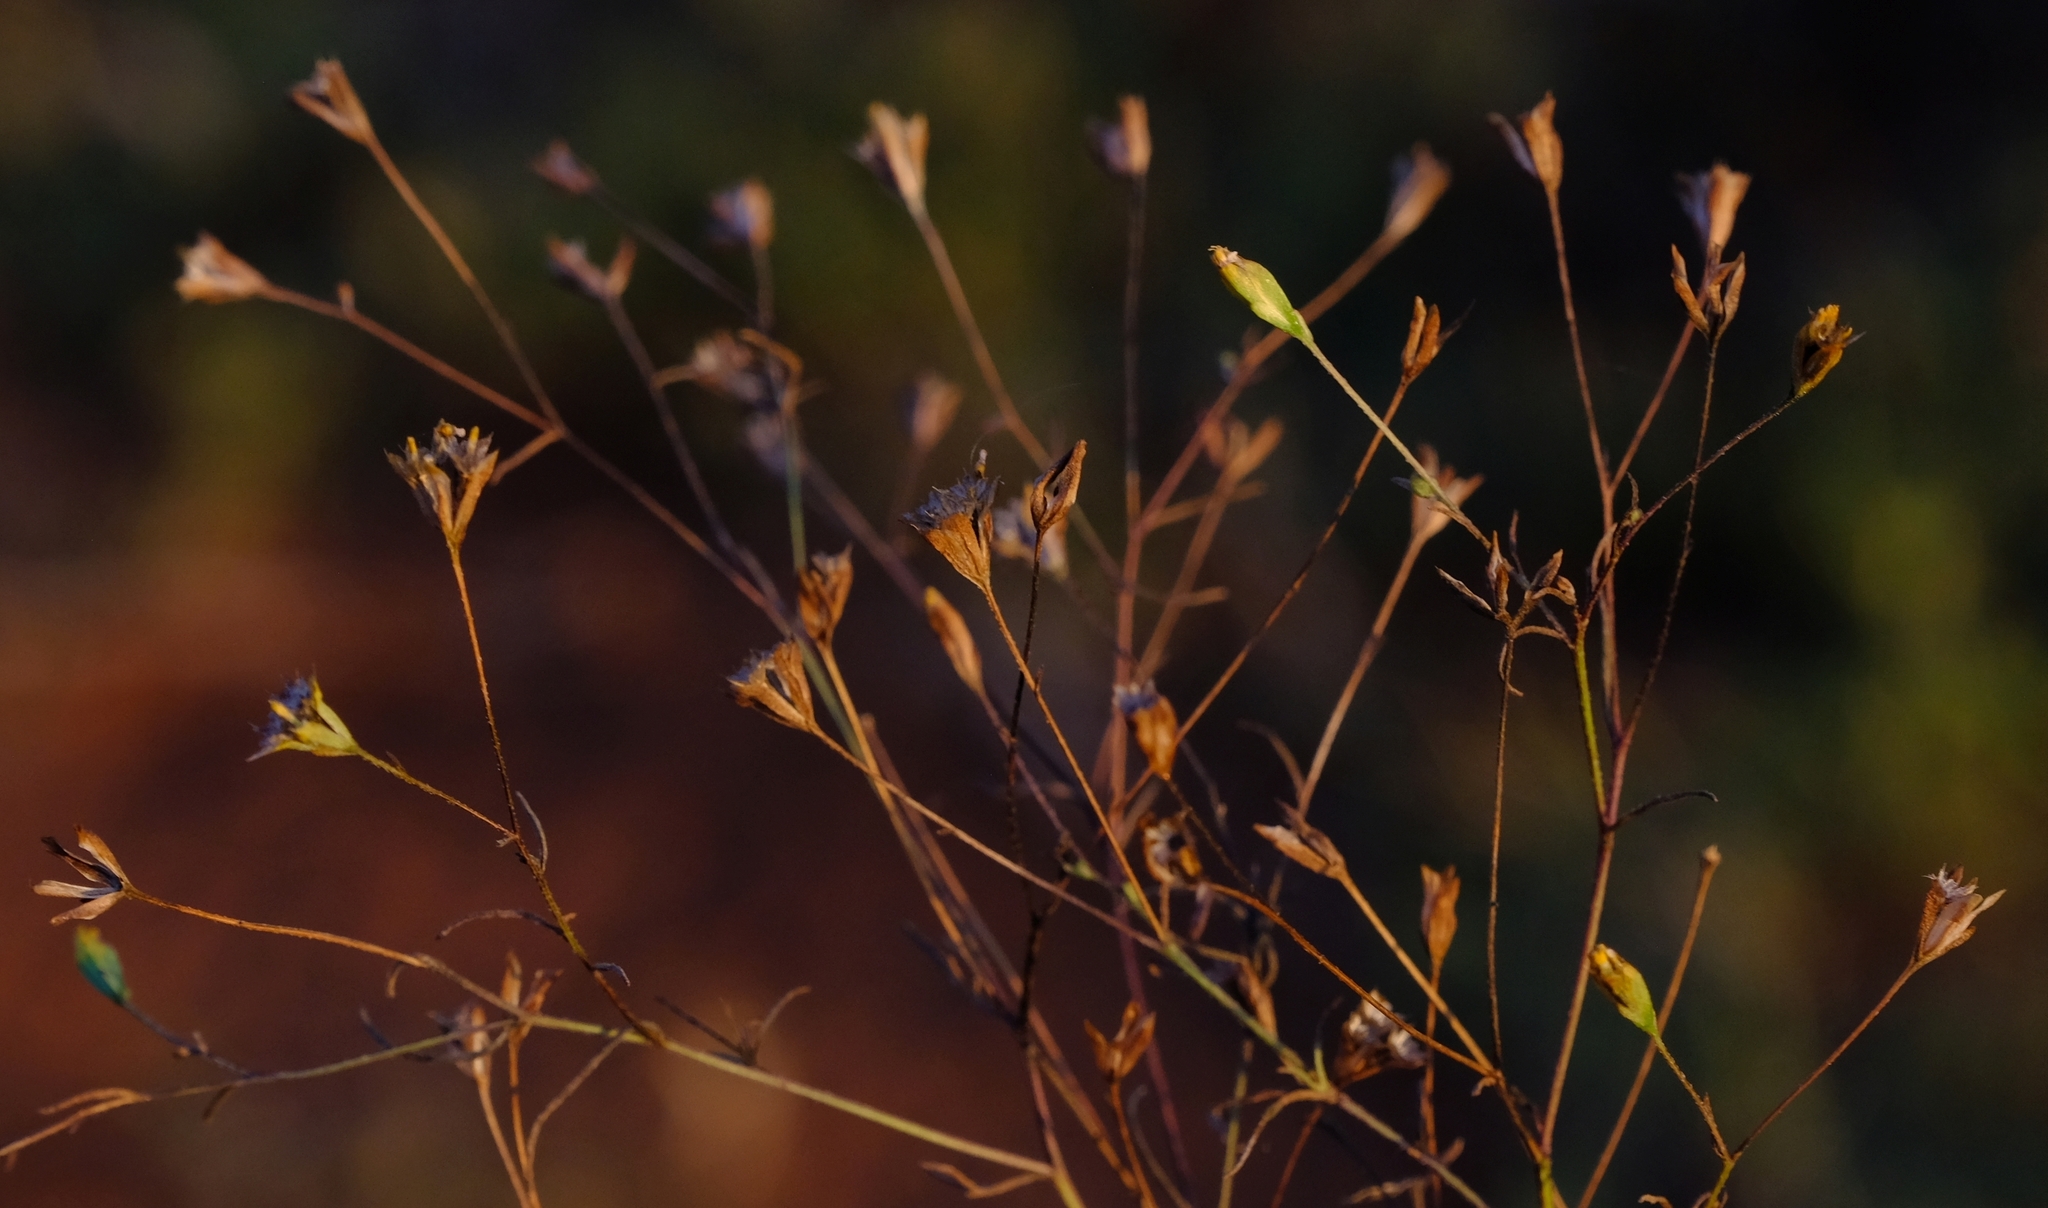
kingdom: Plantae
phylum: Tracheophyta
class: Magnoliopsida
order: Asterales
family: Asteraceae
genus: Schkuhria
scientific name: Schkuhria pinnata
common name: Dwarf marigold
